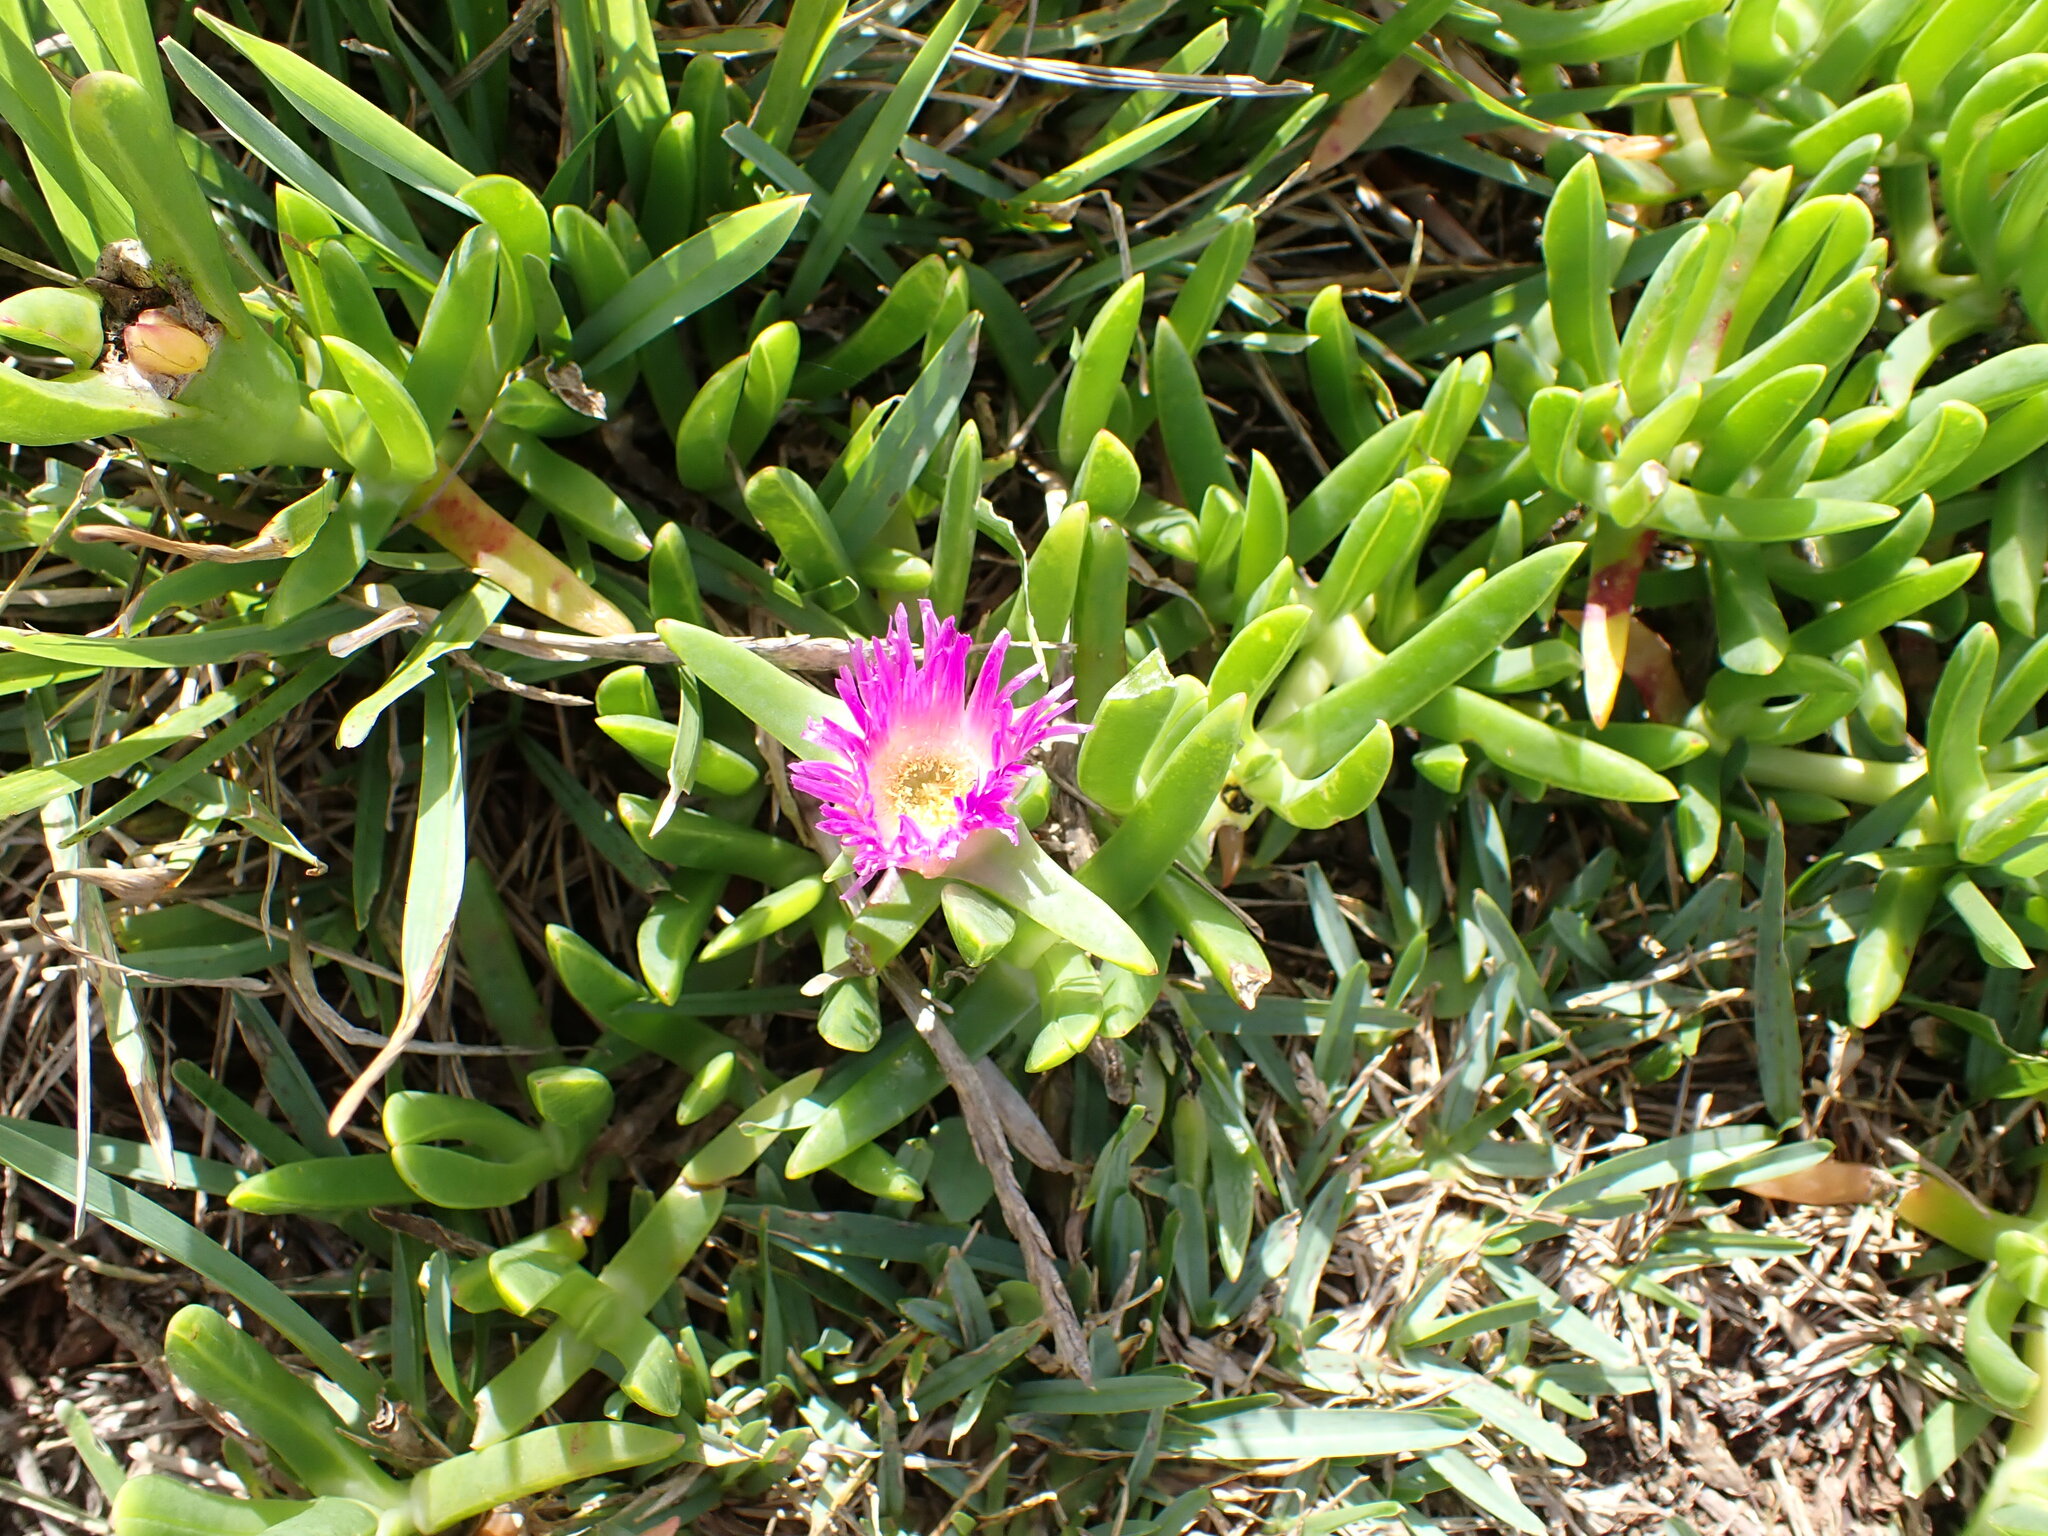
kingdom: Plantae
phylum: Tracheophyta
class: Magnoliopsida
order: Caryophyllales
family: Aizoaceae
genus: Carpobrotus
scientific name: Carpobrotus glaucescens
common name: Angular sea-fig
